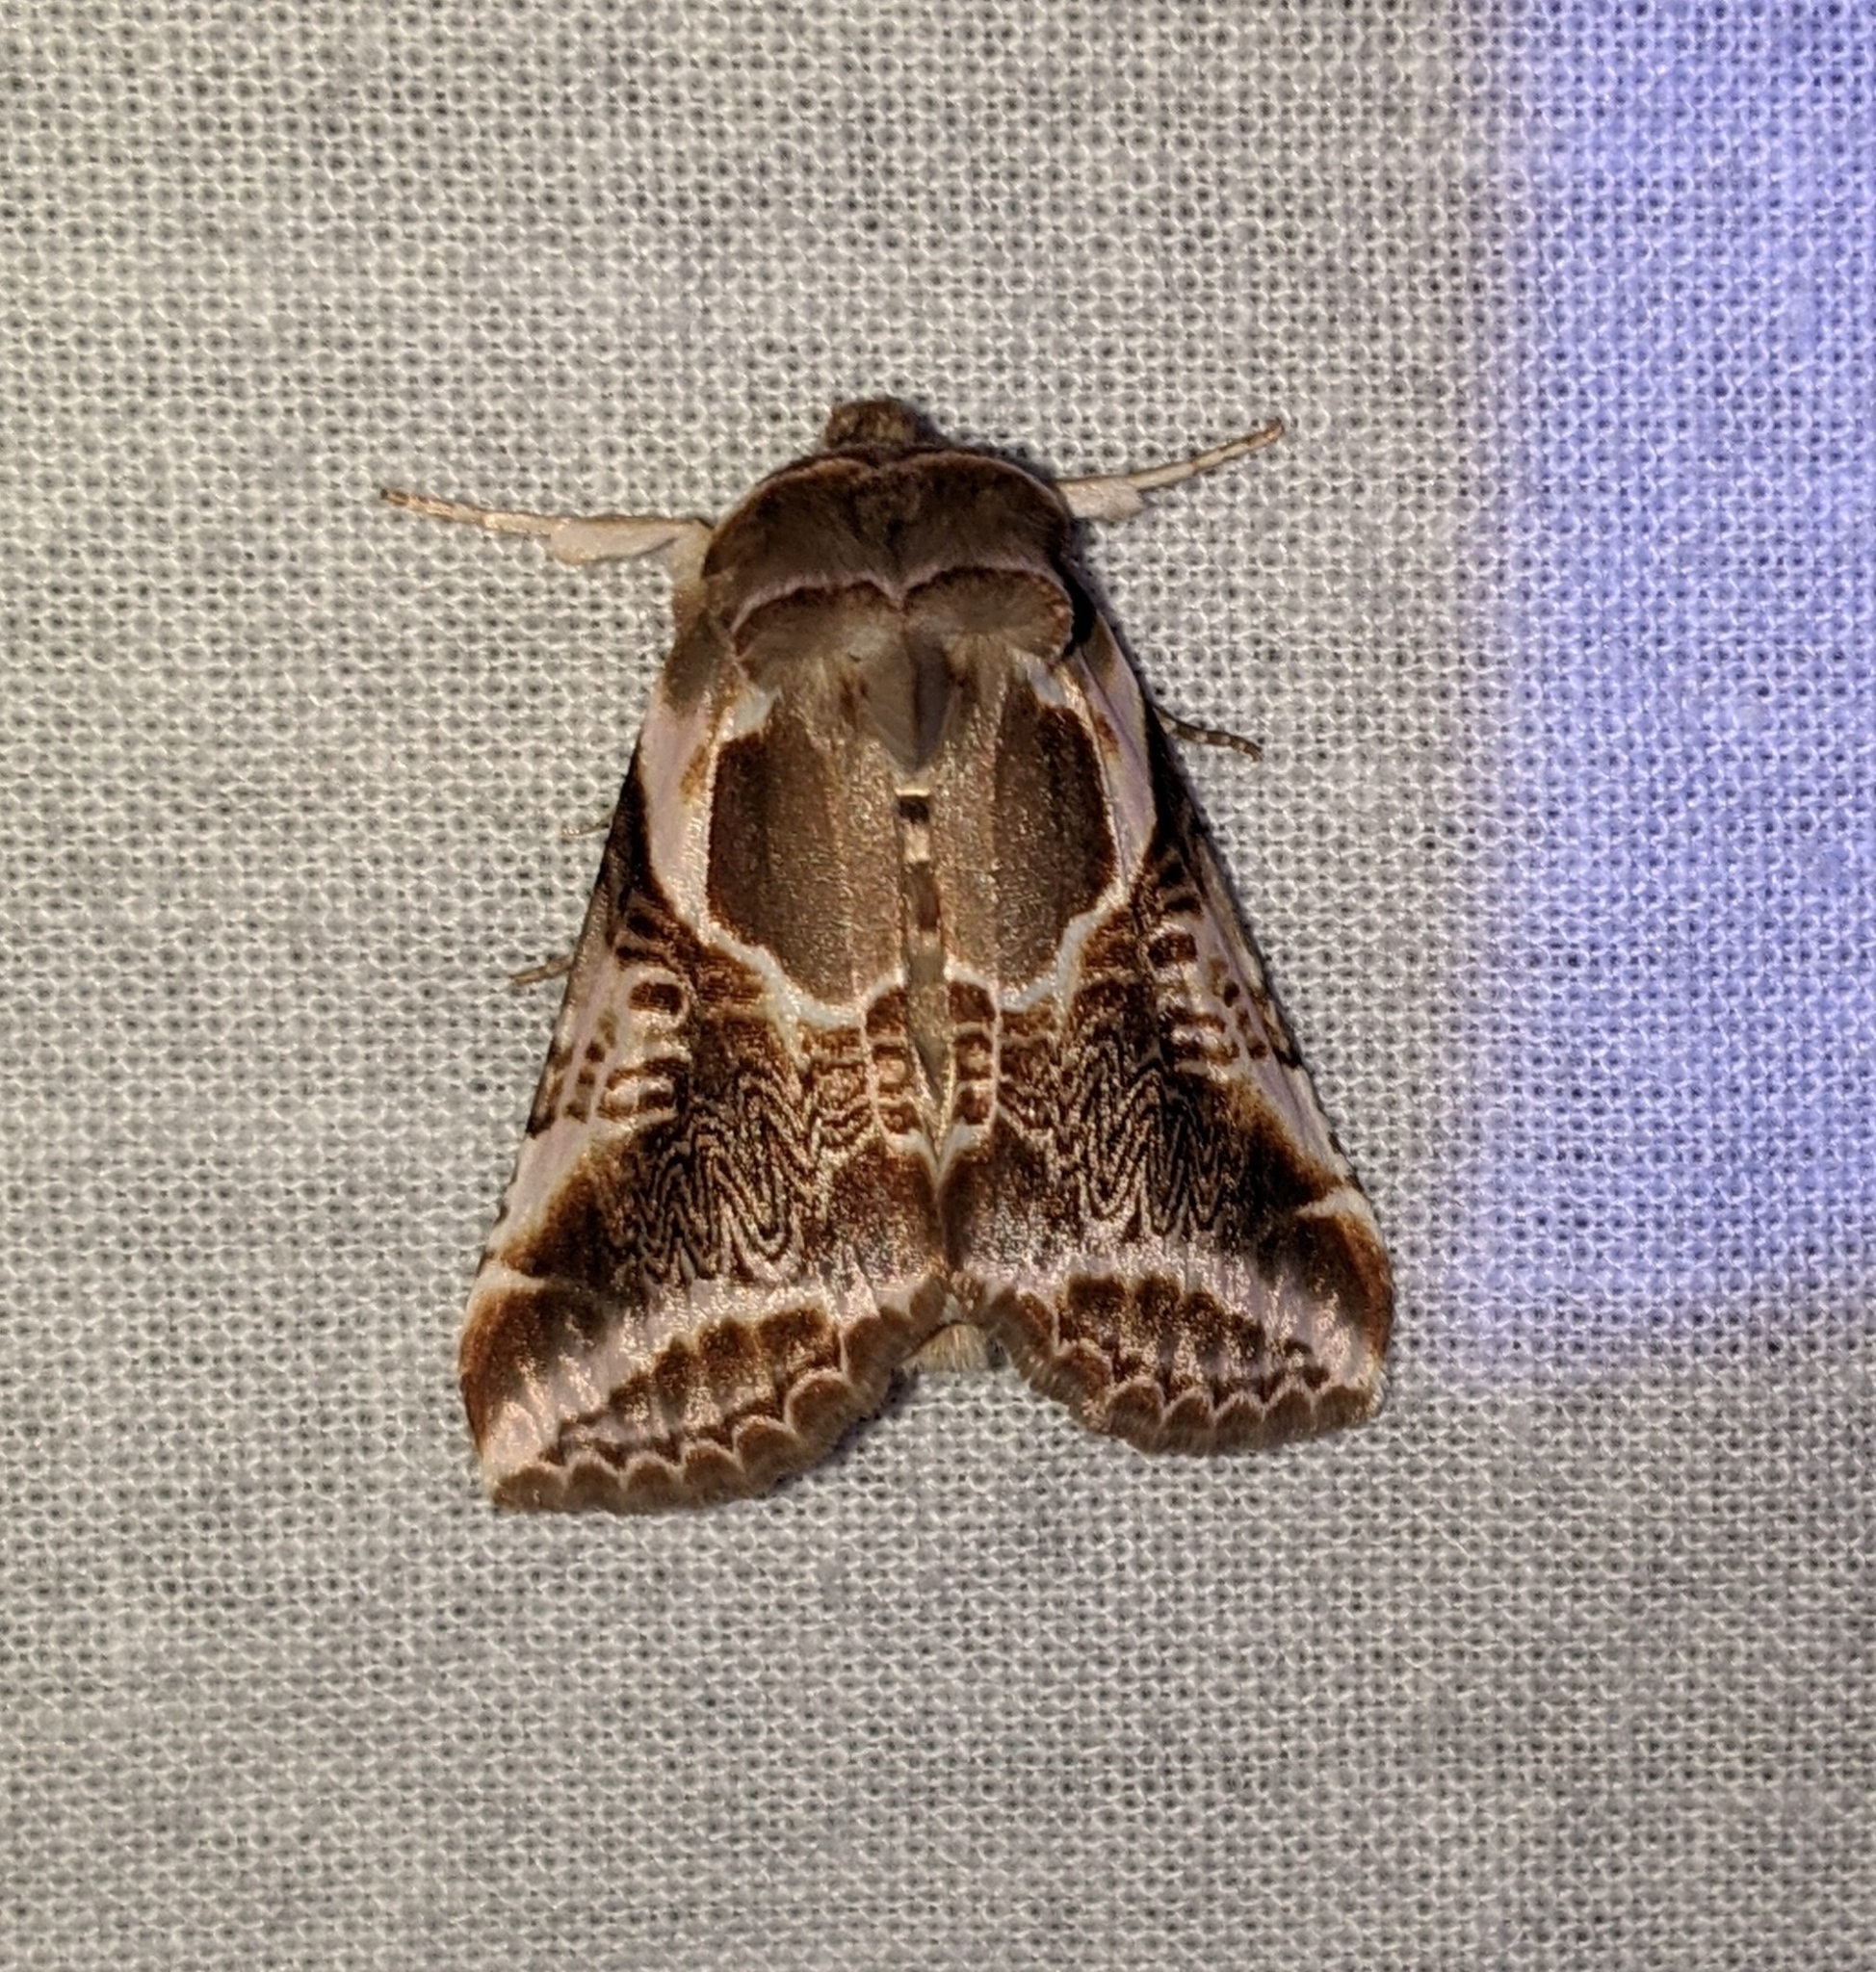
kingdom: Animalia
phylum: Arthropoda
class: Insecta
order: Lepidoptera
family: Drepanidae
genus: Habrosyne
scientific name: Habrosyne scripta
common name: Lettered habrosyne moth
